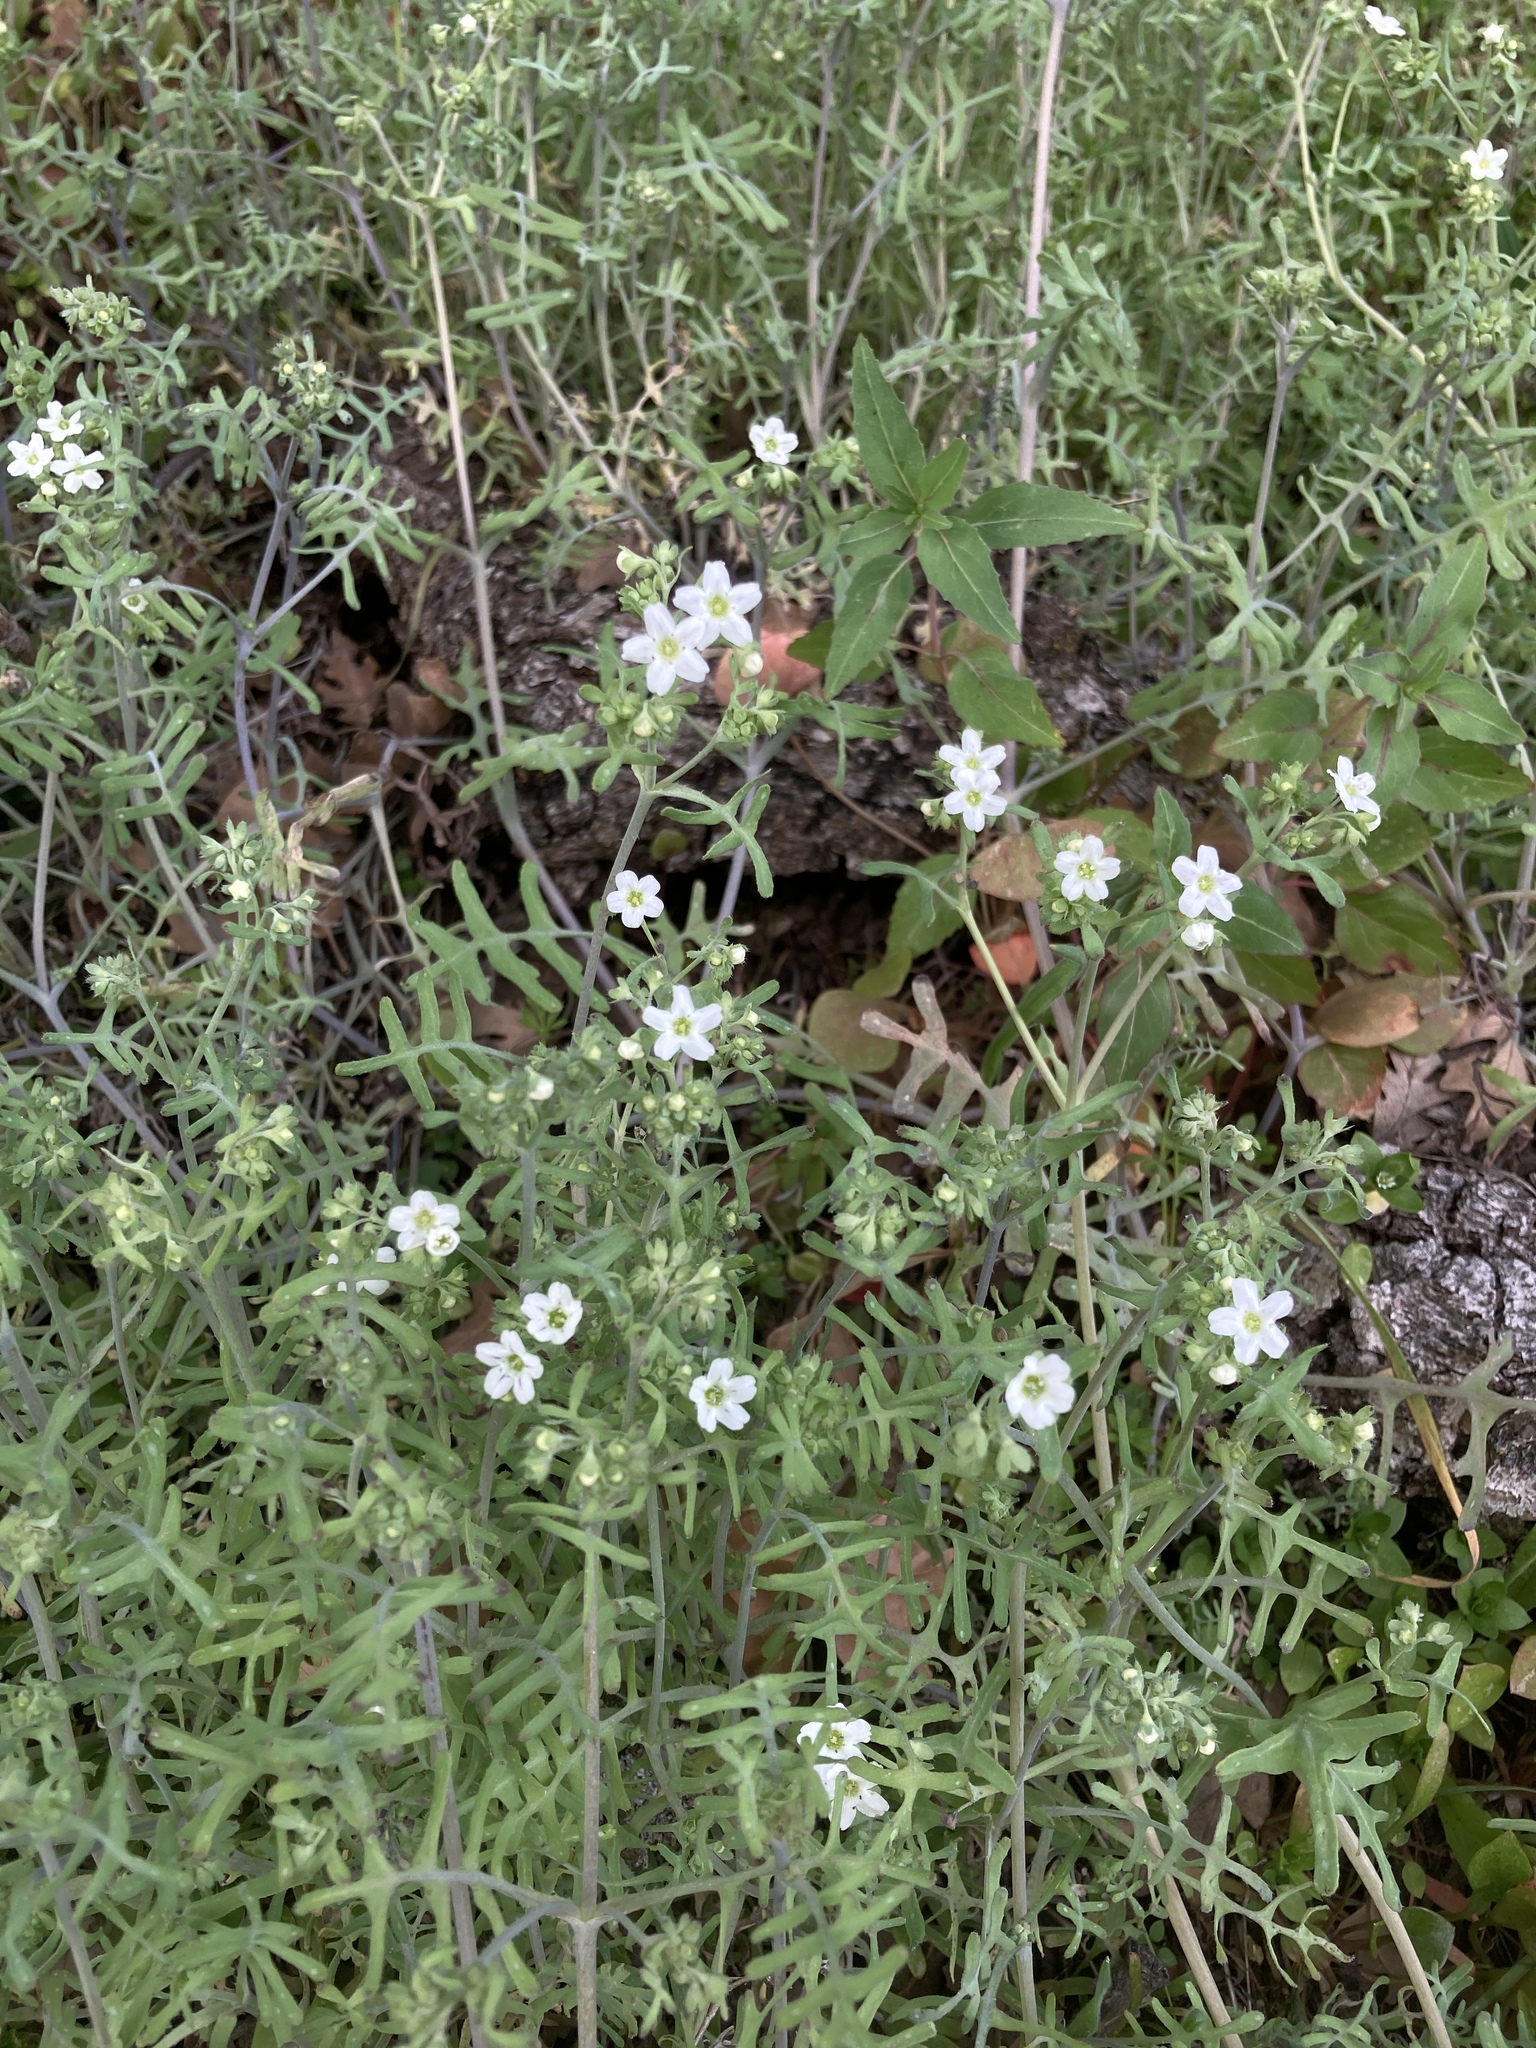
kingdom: Plantae
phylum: Tracheophyta
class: Magnoliopsida
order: Boraginales
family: Hydrophyllaceae
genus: Pholistoma
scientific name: Pholistoma membranaceum
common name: White fiesta-flower
